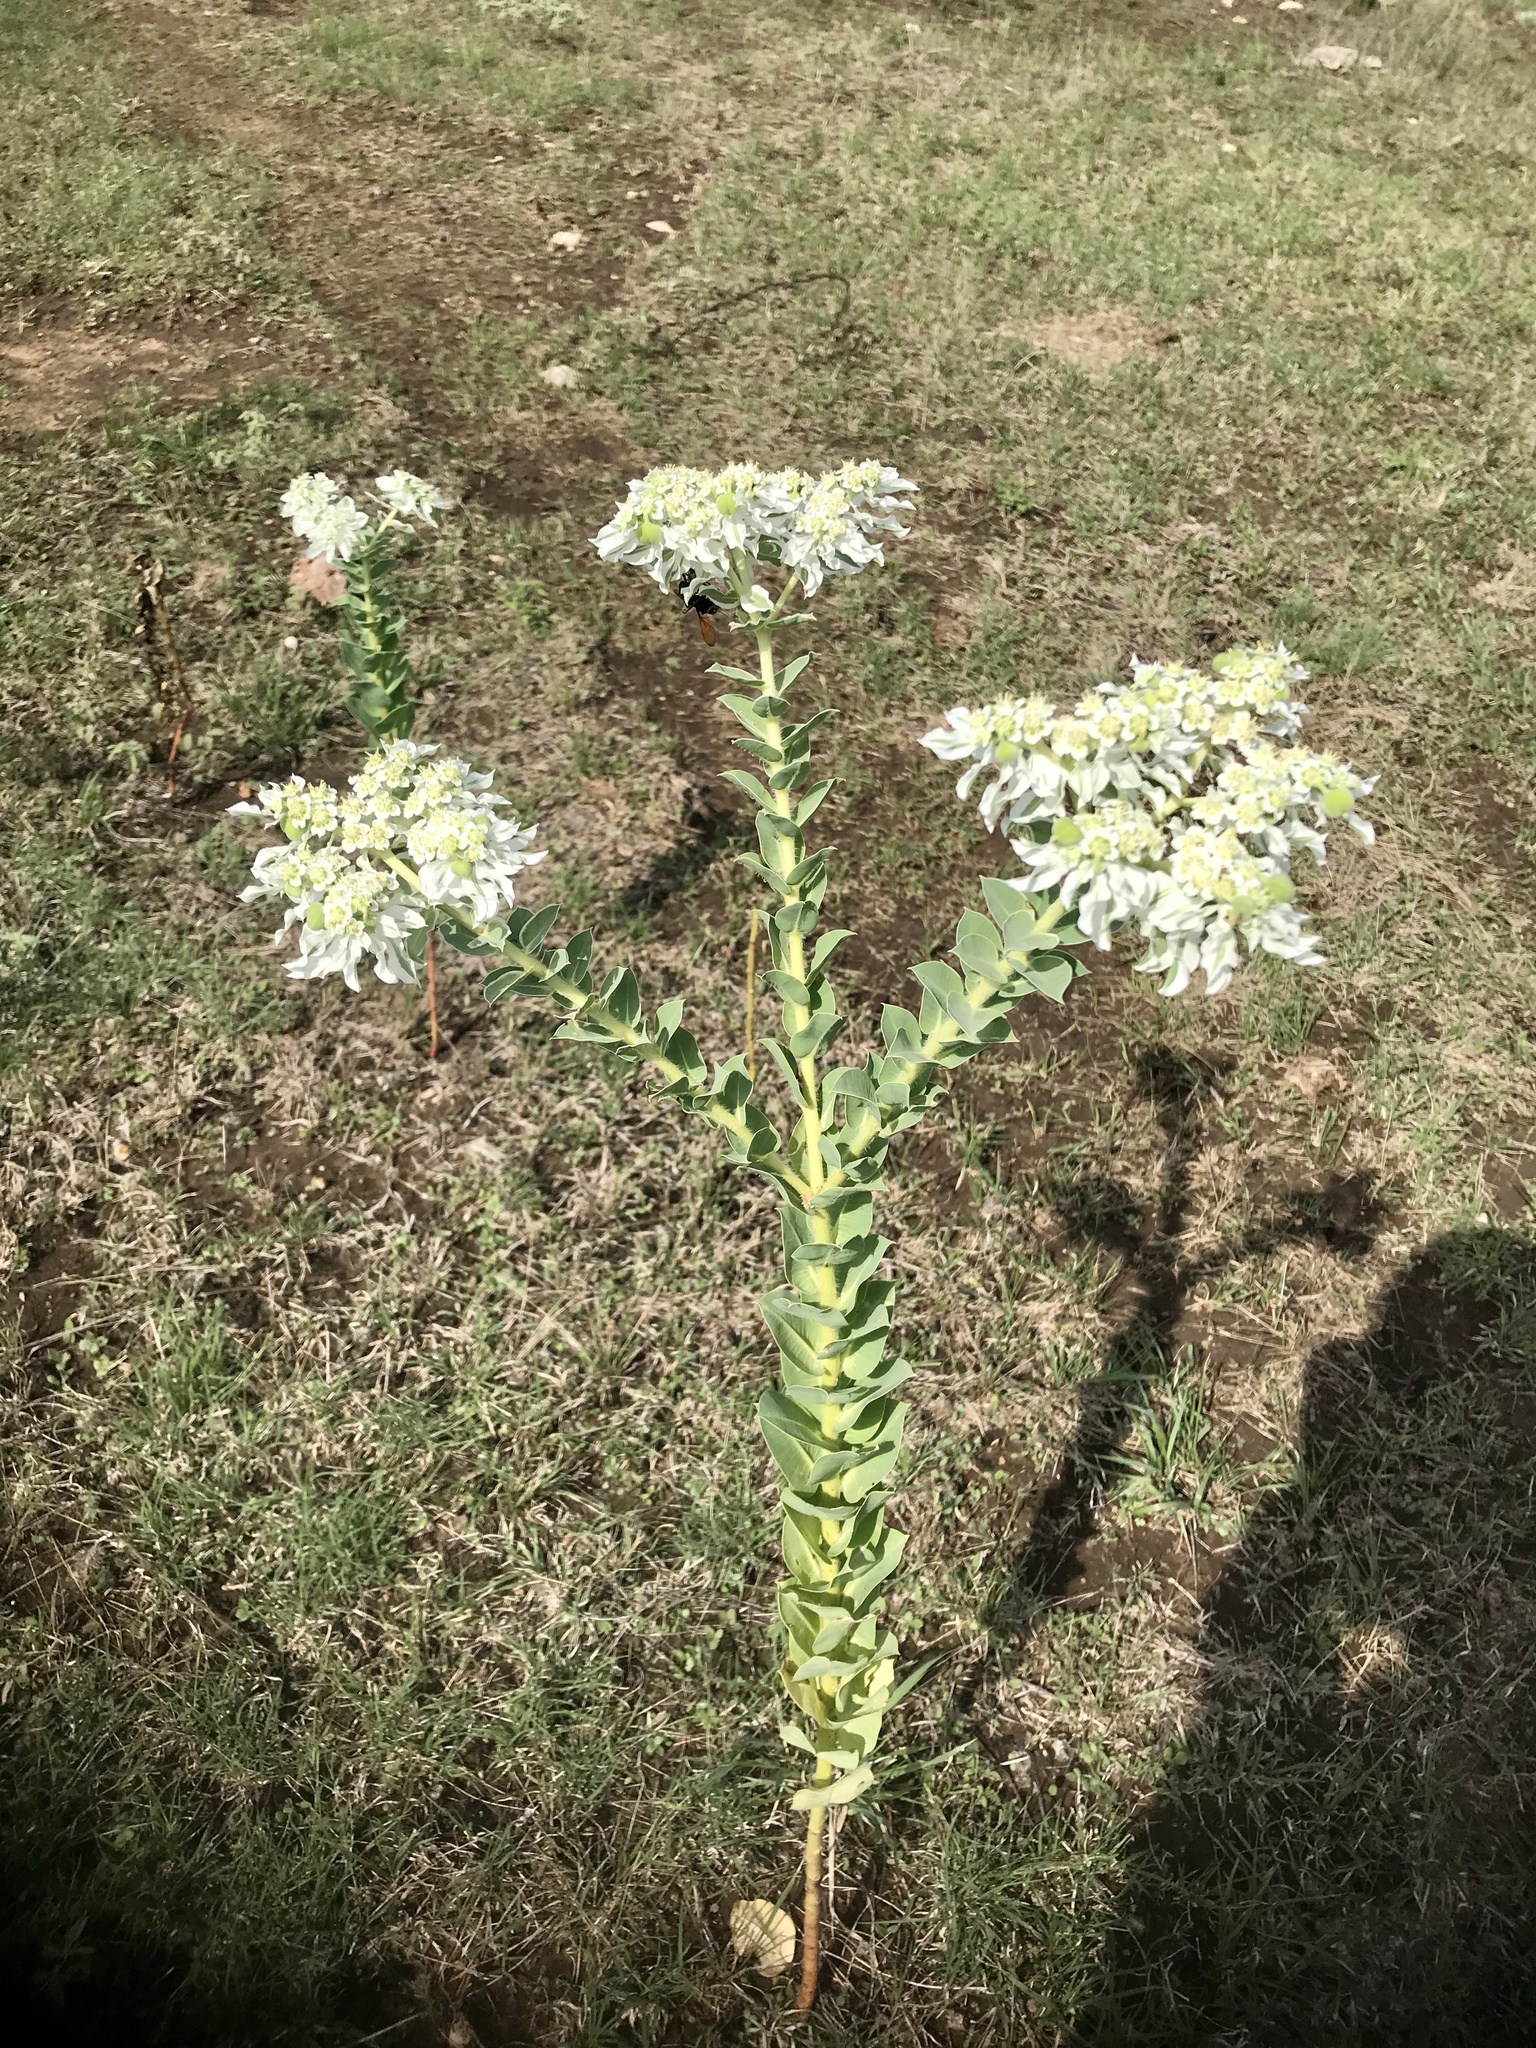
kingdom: Plantae
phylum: Tracheophyta
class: Magnoliopsida
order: Malpighiales
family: Euphorbiaceae
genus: Euphorbia
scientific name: Euphorbia marginata
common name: Ghostweed
